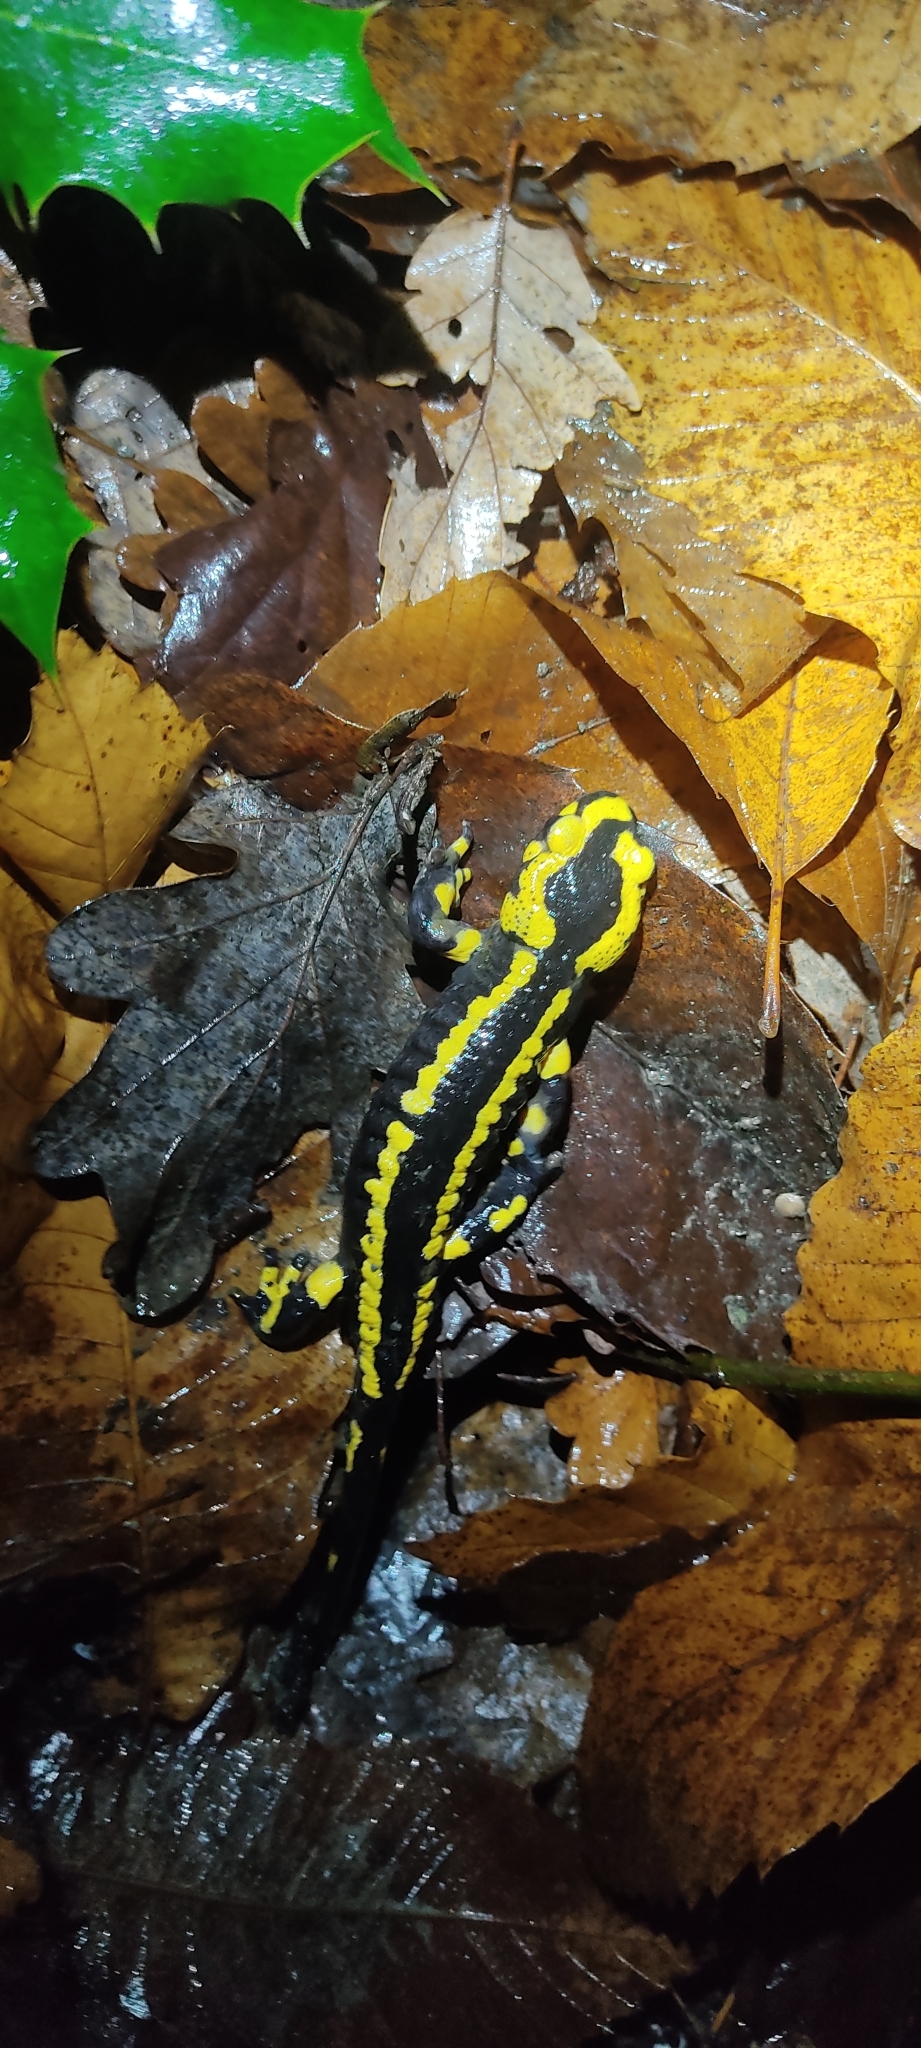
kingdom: Animalia
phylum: Chordata
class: Amphibia
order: Caudata
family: Salamandridae
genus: Salamandra
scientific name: Salamandra salamandra
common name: Fire salamander
